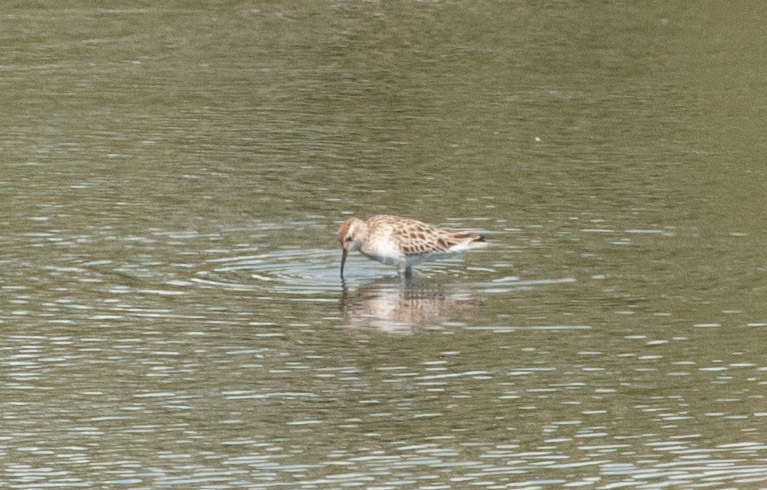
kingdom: Animalia
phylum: Chordata
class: Aves
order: Charadriiformes
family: Scolopacidae
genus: Calidris
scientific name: Calidris acuminata
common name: Sharp-tailed sandpiper
